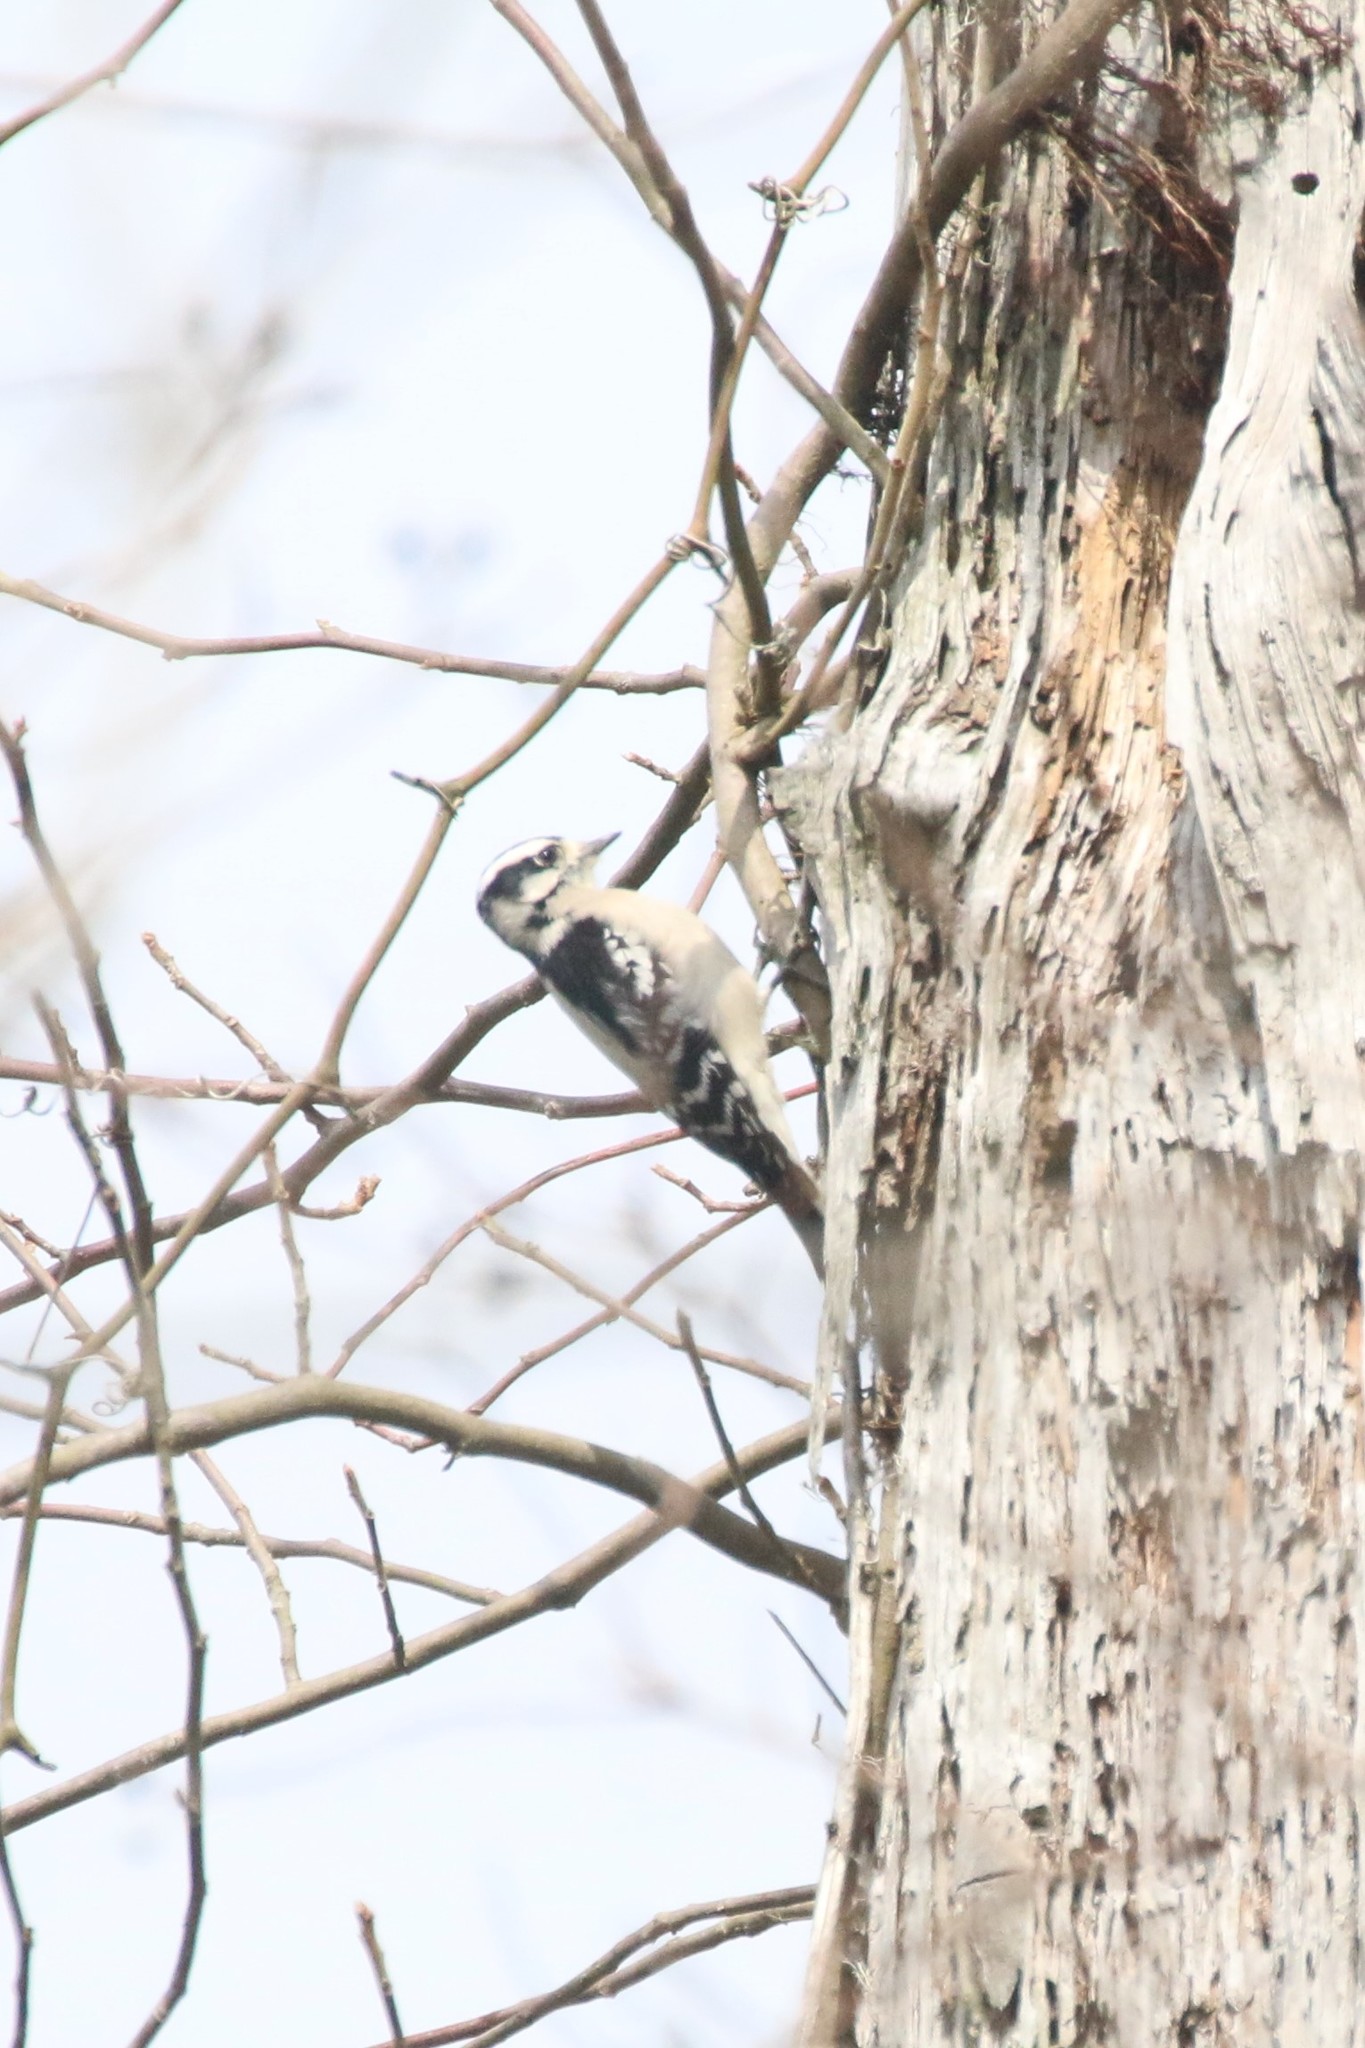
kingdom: Animalia
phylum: Chordata
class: Aves
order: Piciformes
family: Picidae
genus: Dryobates
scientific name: Dryobates pubescens
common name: Downy woodpecker
